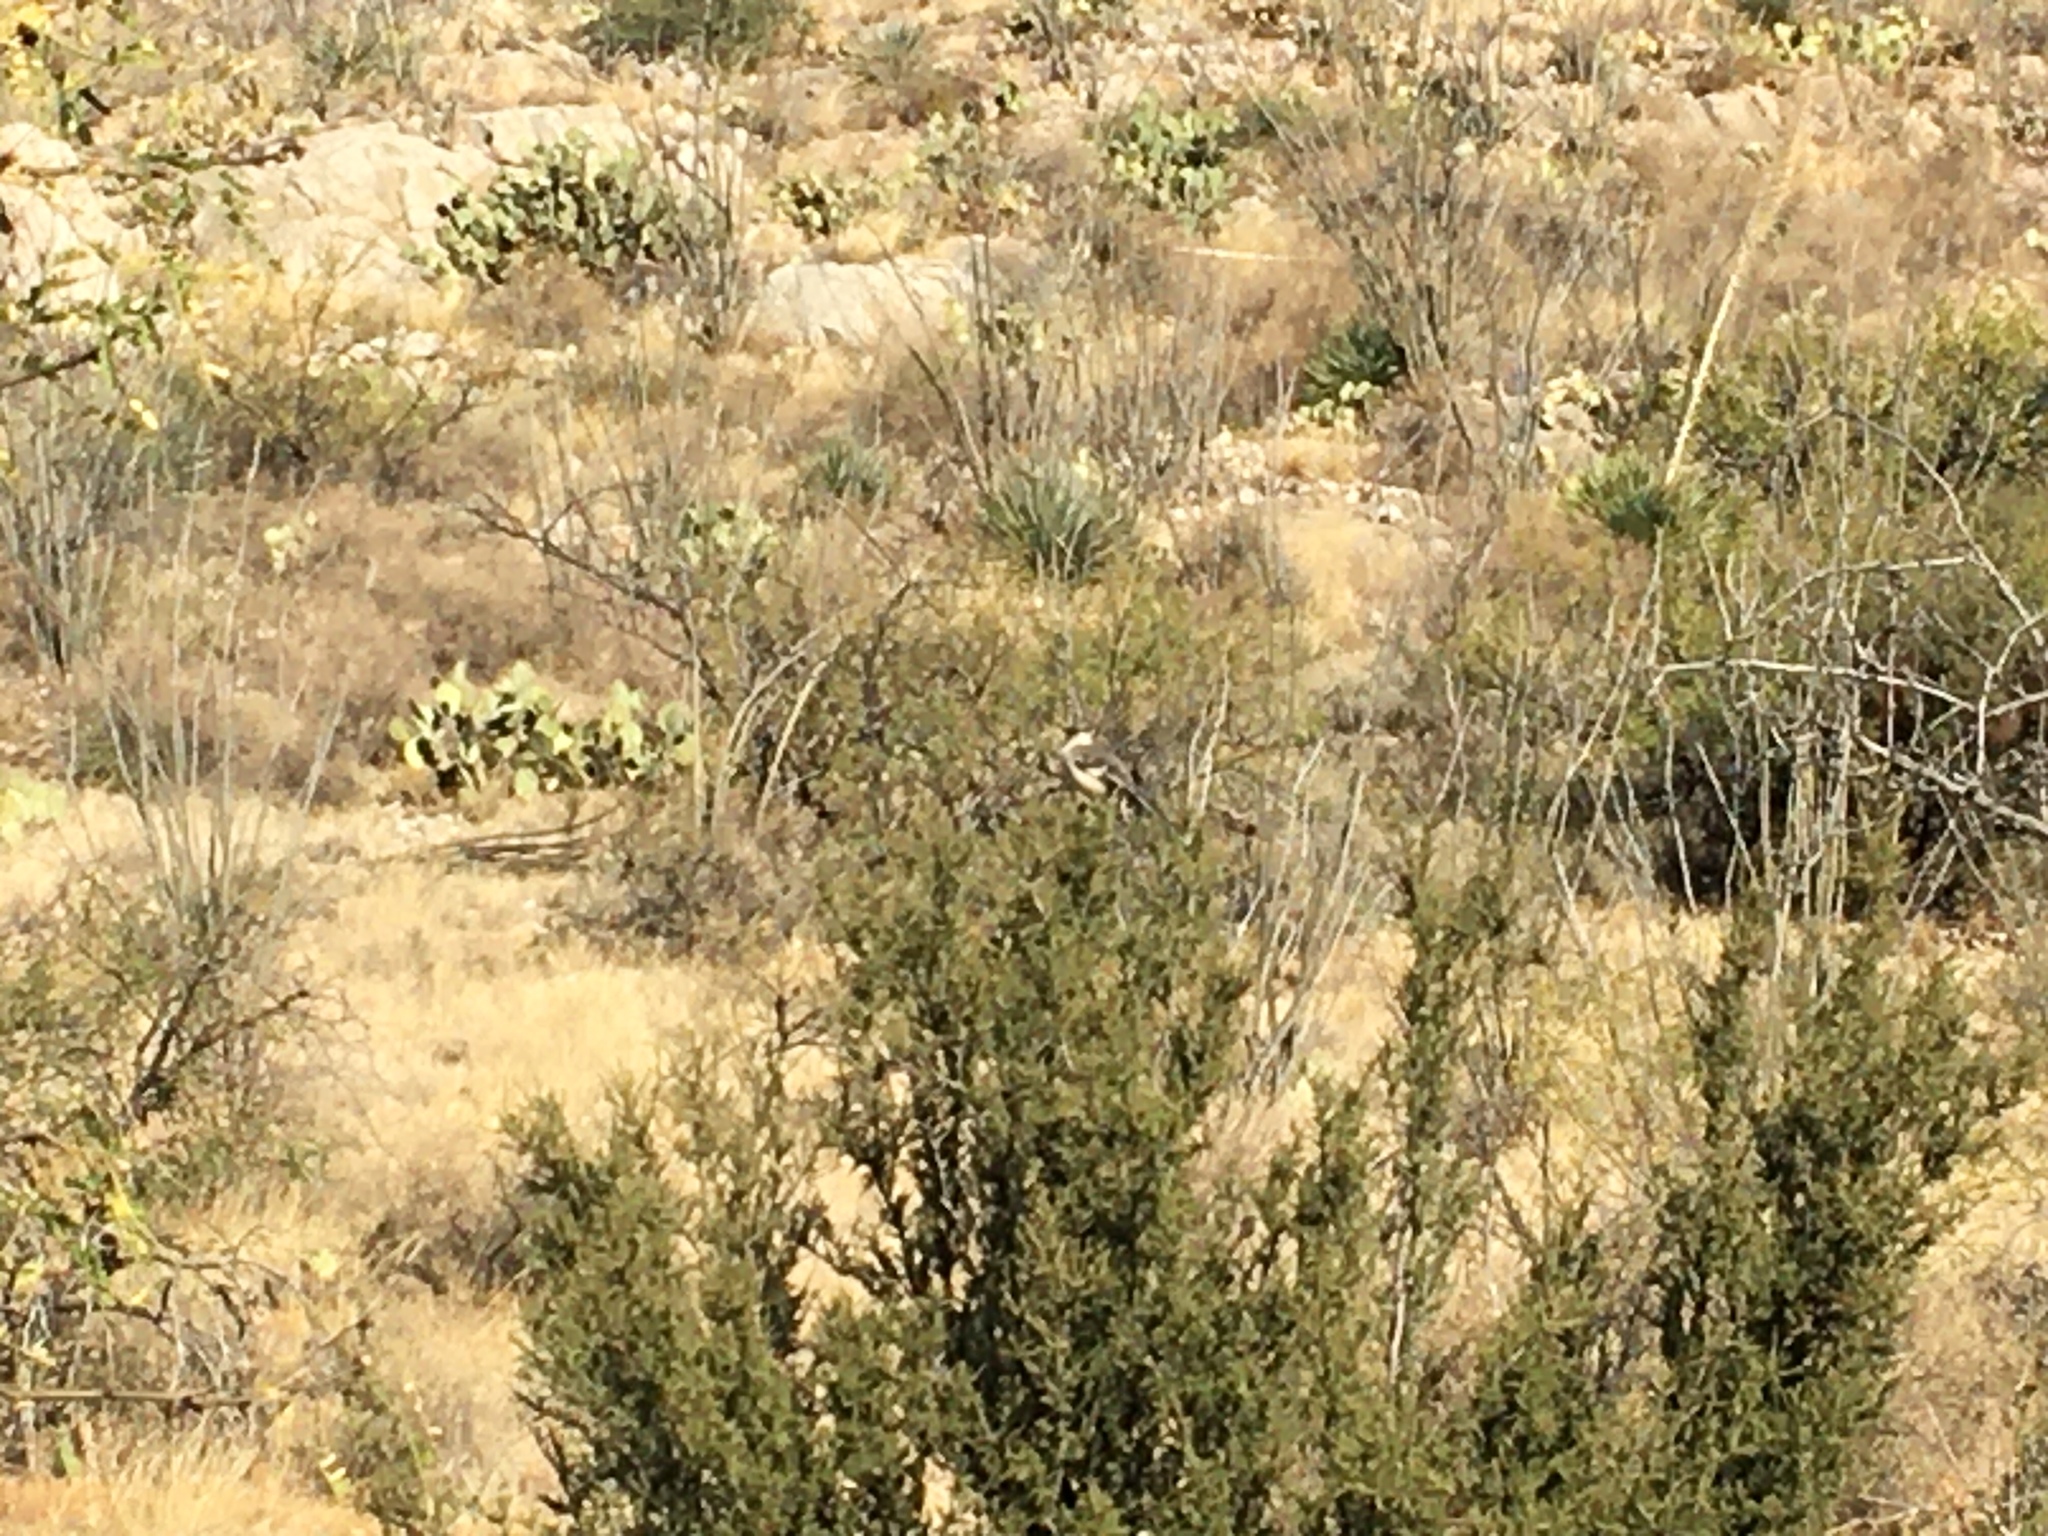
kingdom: Animalia
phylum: Chordata
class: Aves
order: Passeriformes
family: Mimidae
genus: Mimus
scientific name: Mimus polyglottos
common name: Northern mockingbird
